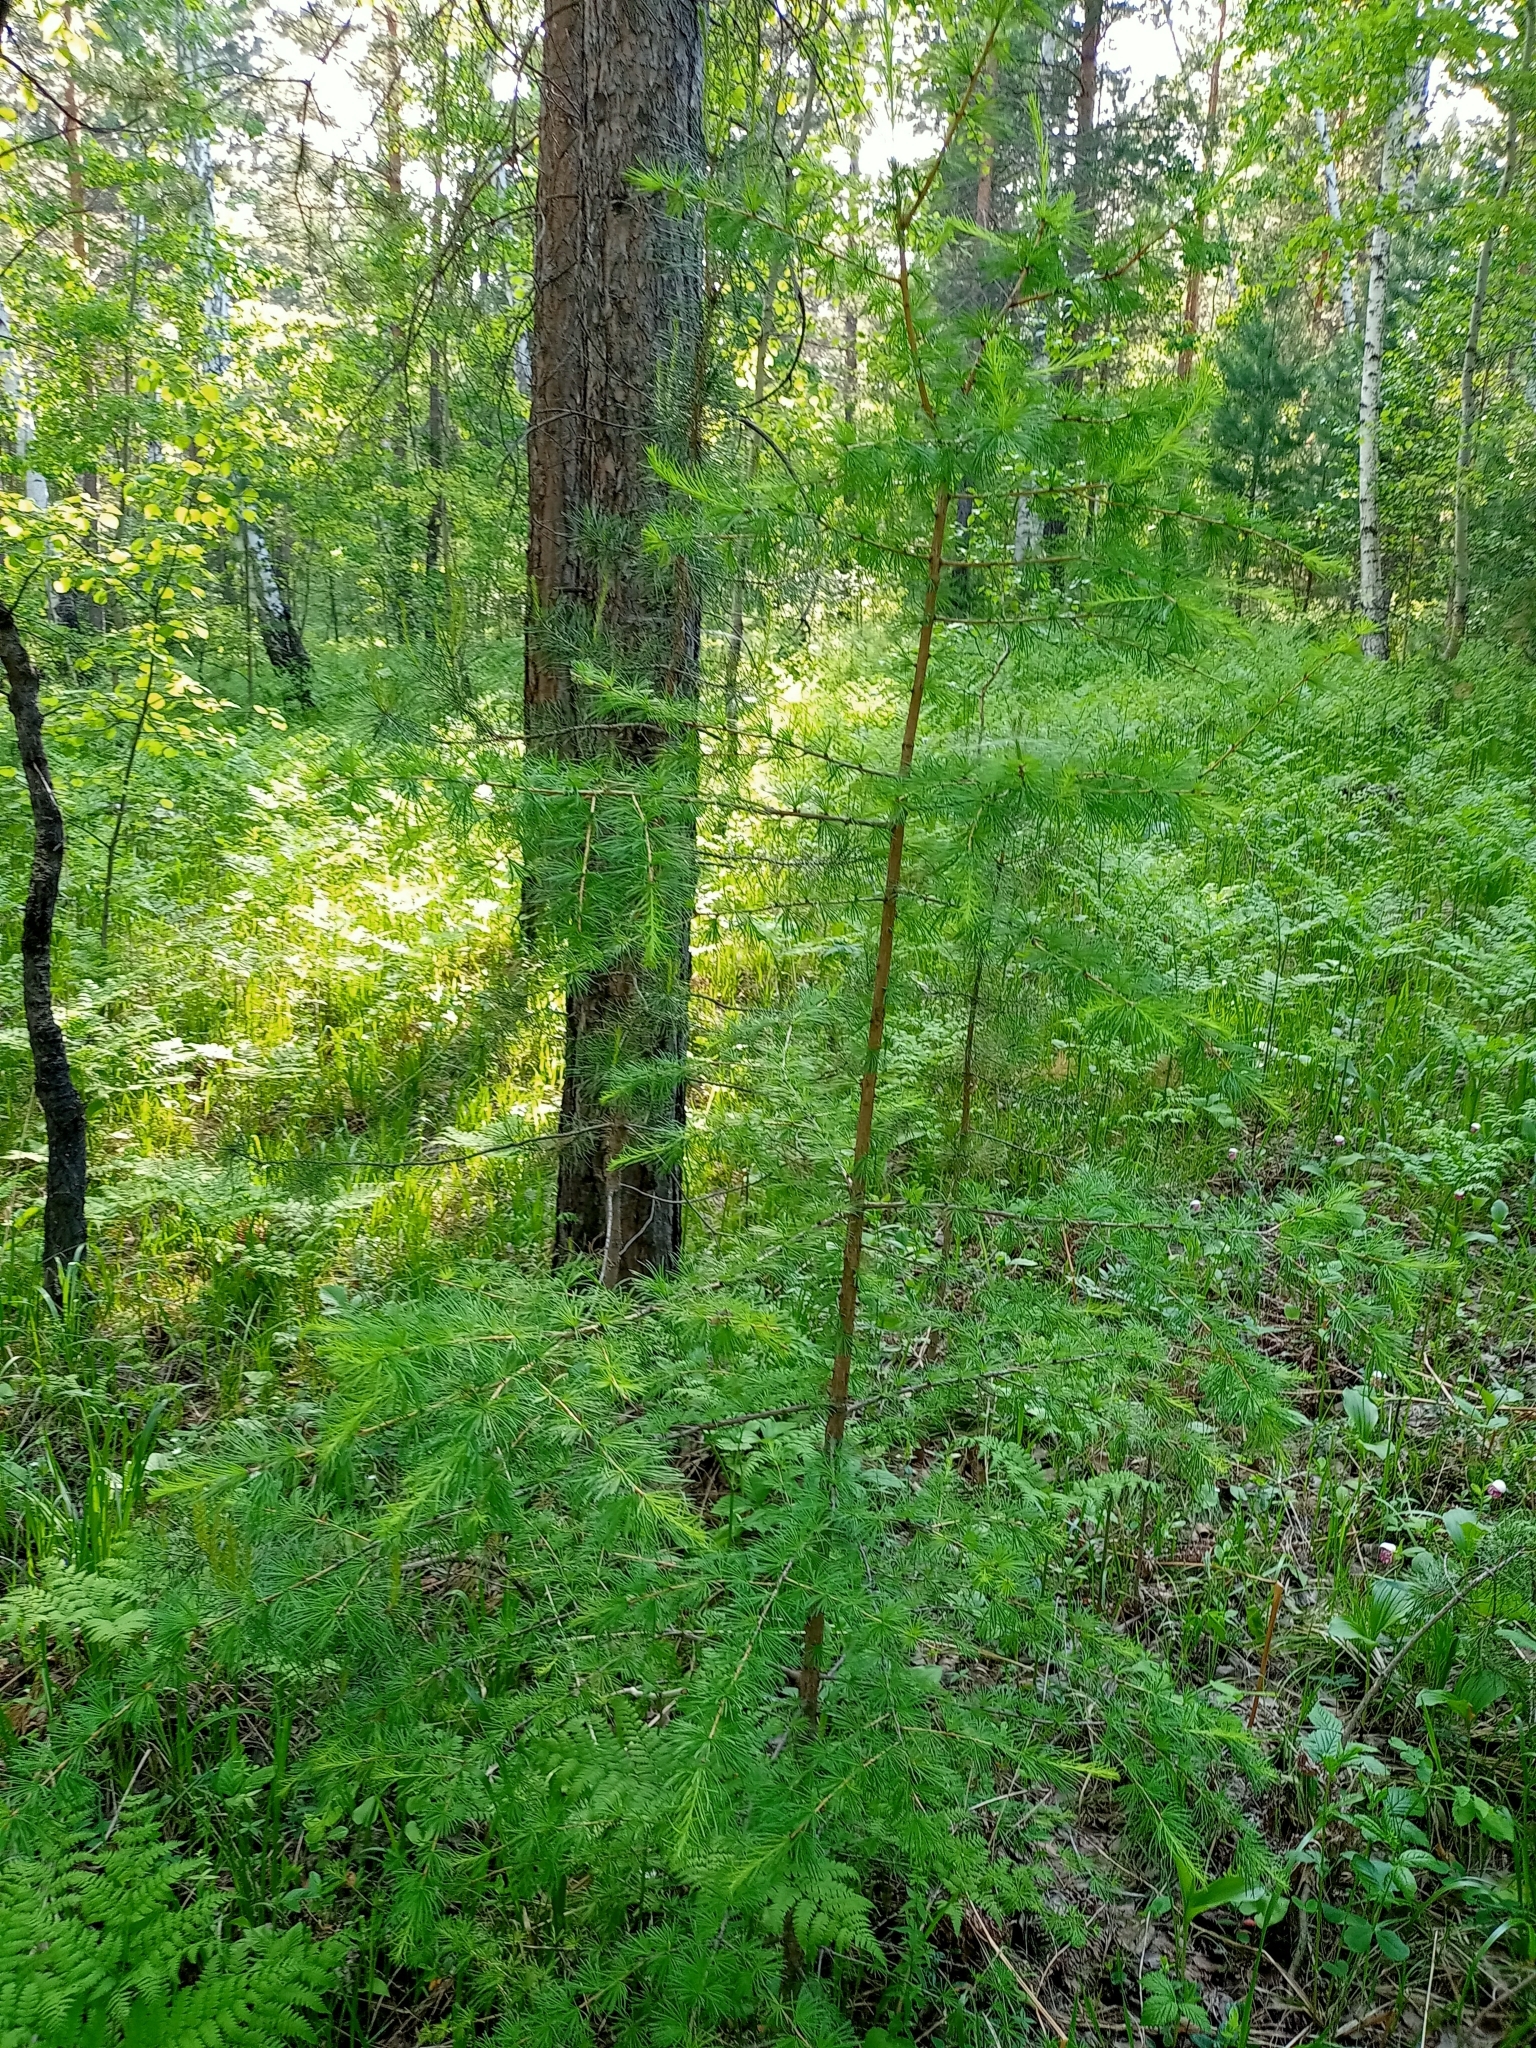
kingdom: Plantae
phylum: Tracheophyta
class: Pinopsida
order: Pinales
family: Pinaceae
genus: Larix
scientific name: Larix sibirica
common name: Siberian larch
